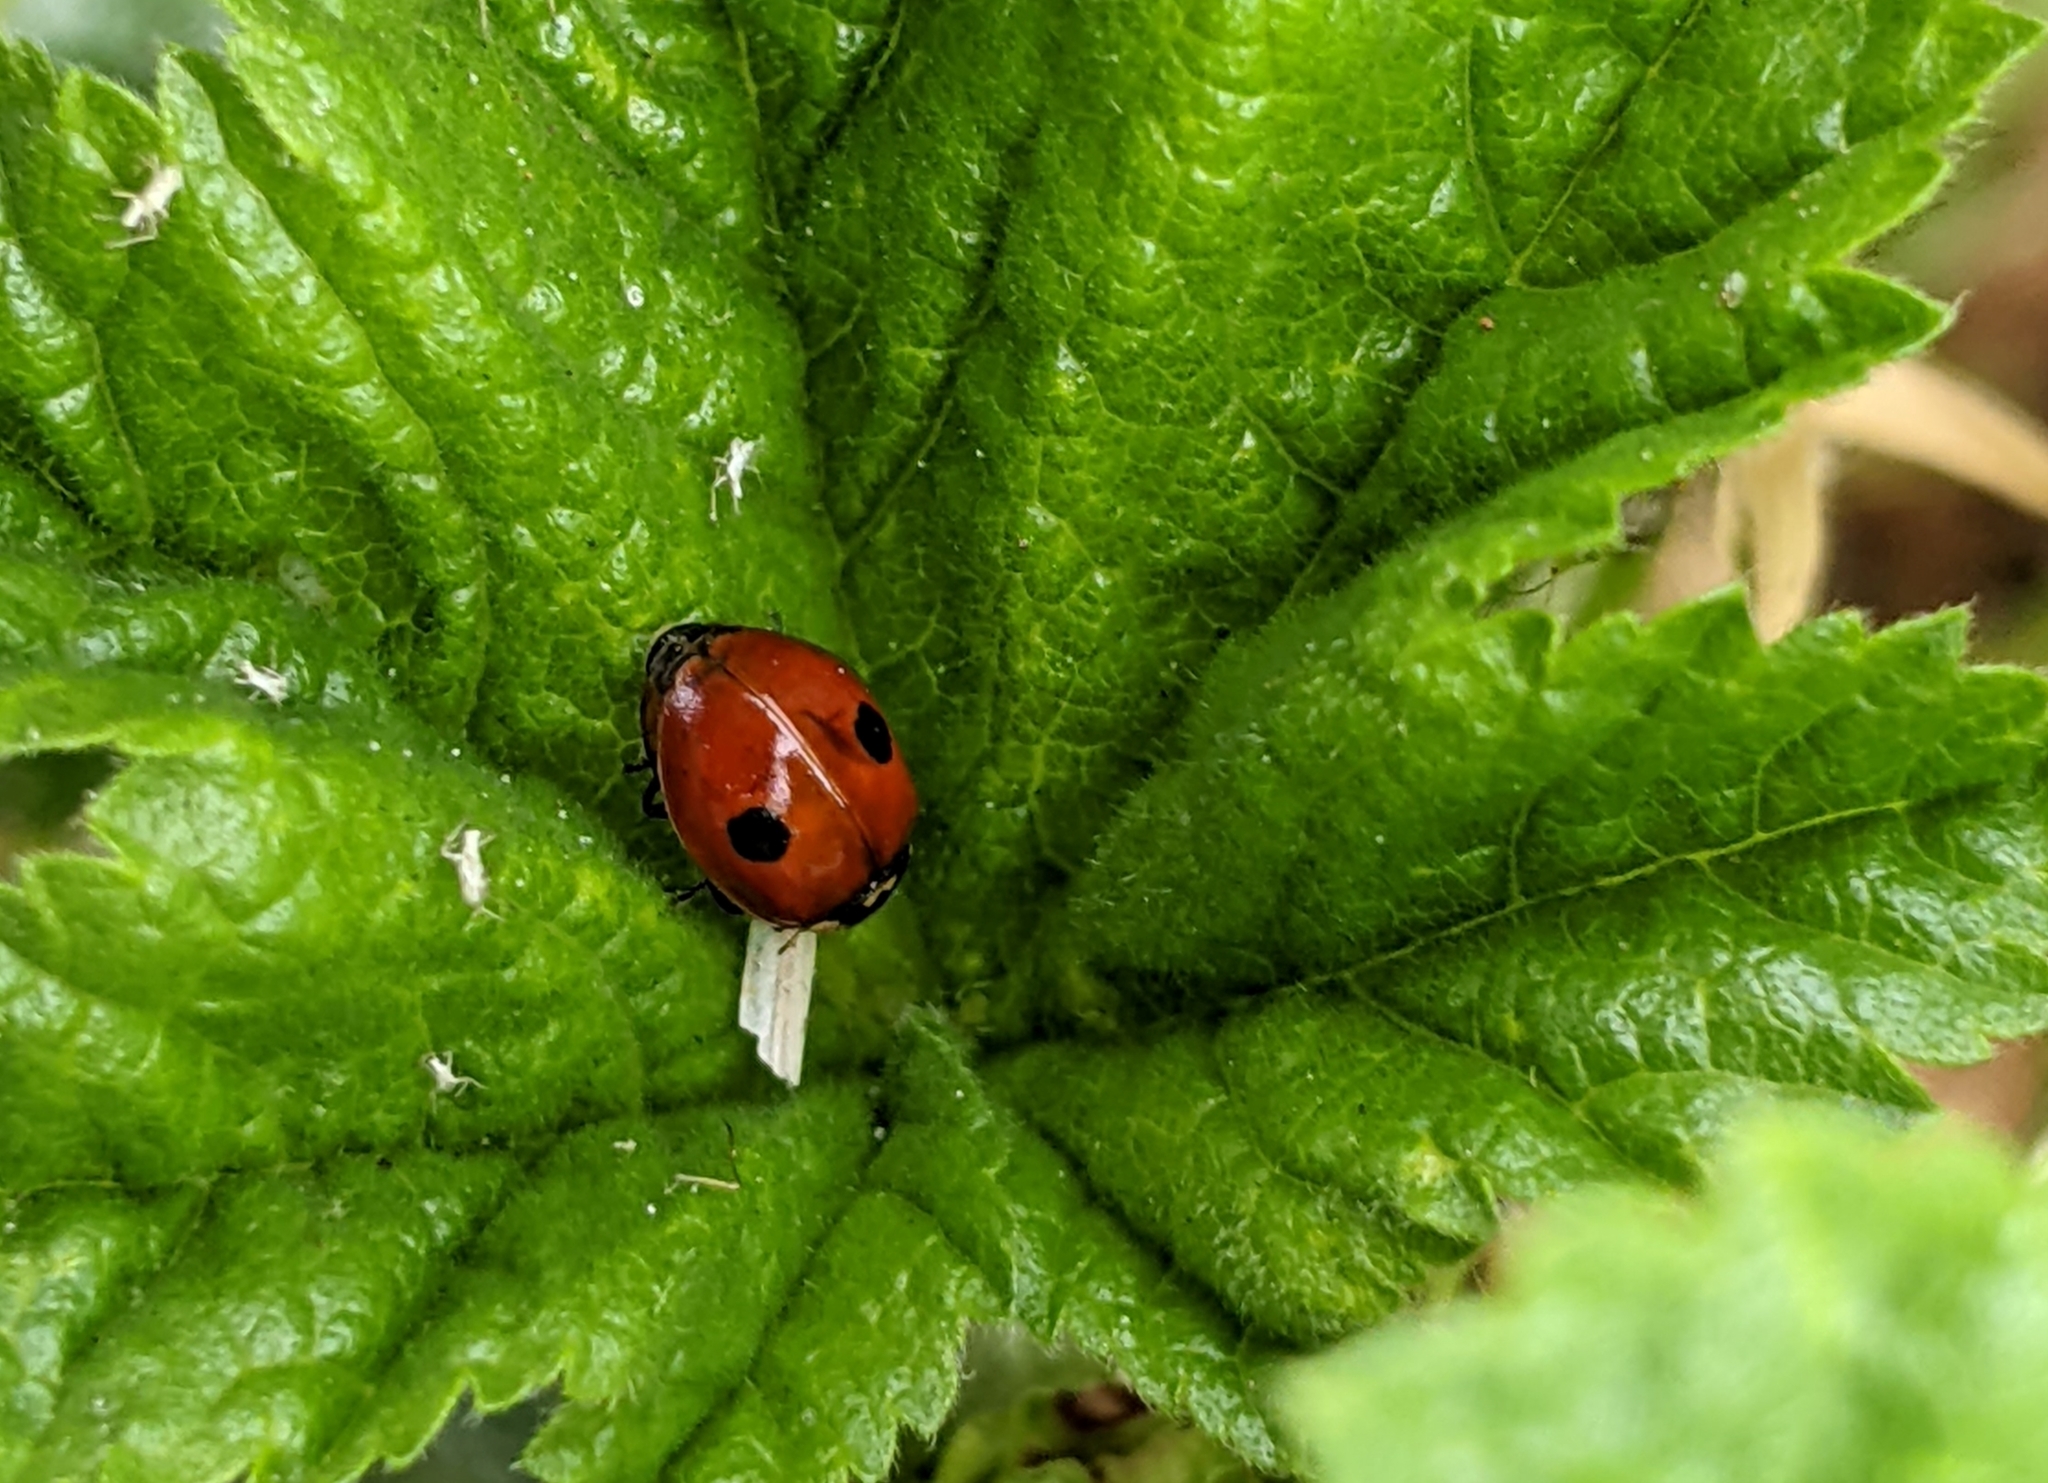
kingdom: Animalia
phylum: Arthropoda
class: Insecta
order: Coleoptera
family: Coccinellidae
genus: Adalia
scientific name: Adalia bipunctata
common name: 2-spot ladybird
